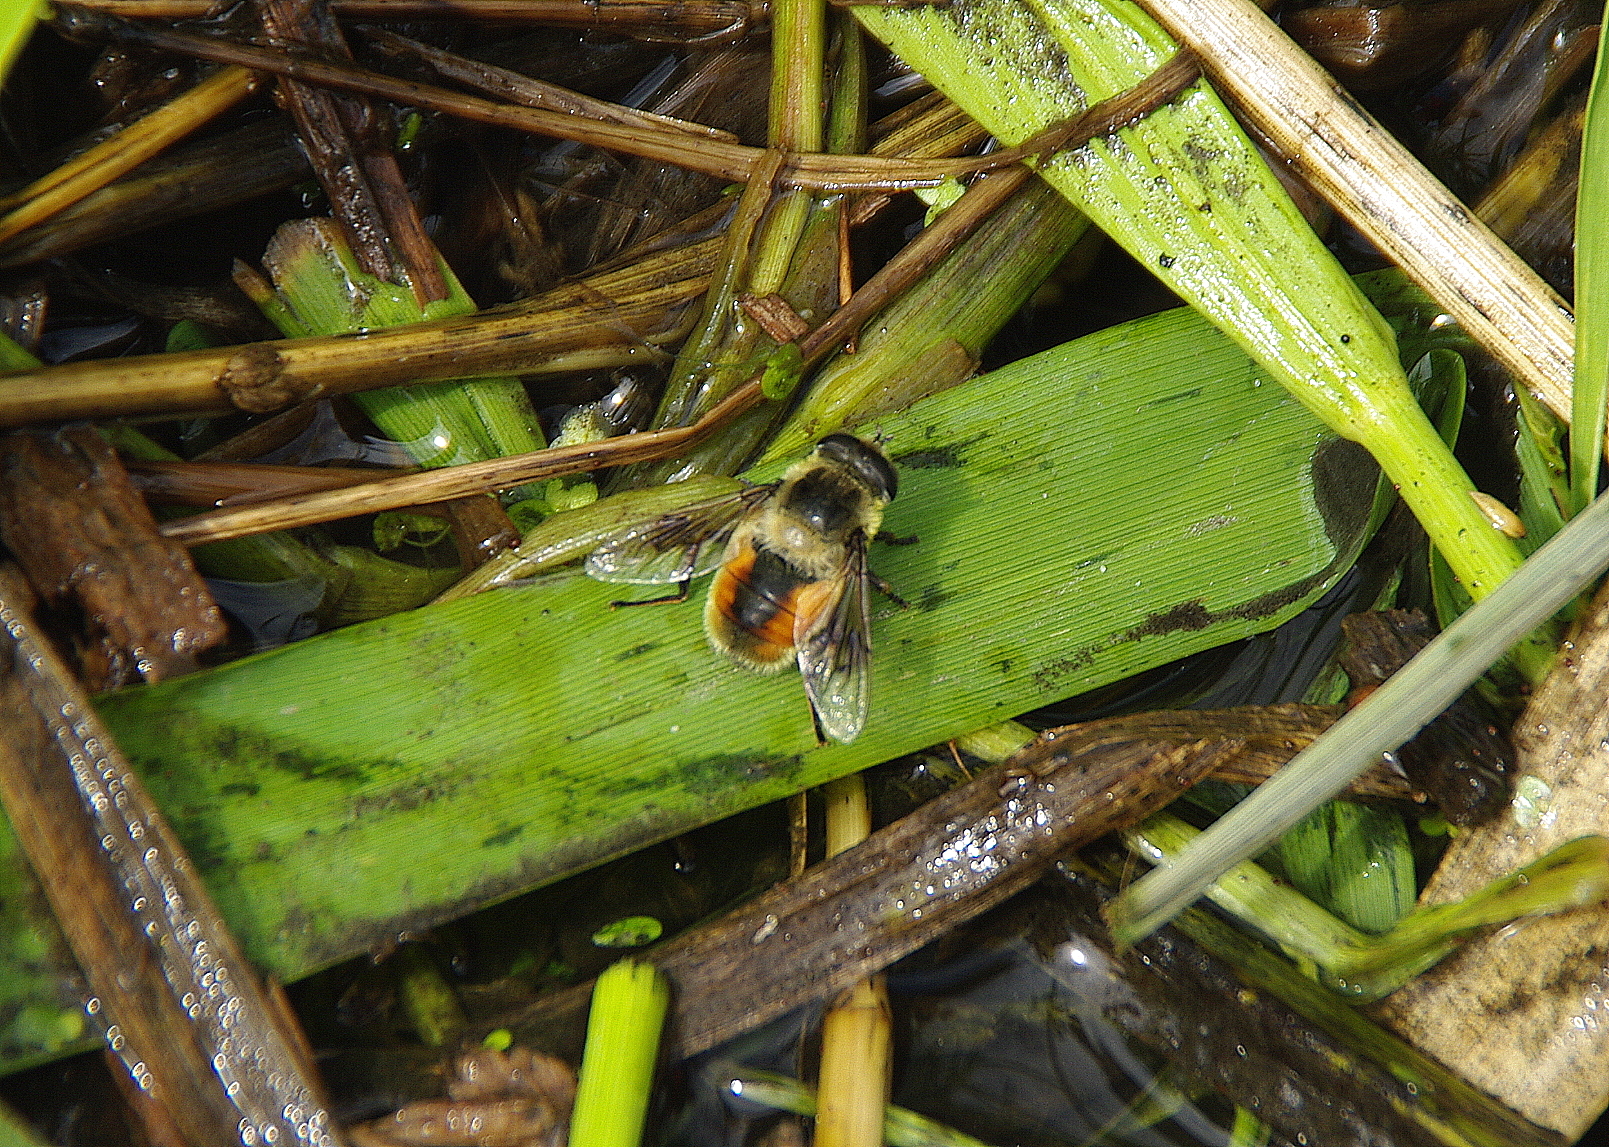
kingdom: Animalia
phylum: Arthropoda
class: Insecta
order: Diptera
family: Syrphidae
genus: Eristalis
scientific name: Eristalis anthophorina
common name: Orange-spotted drone fly
